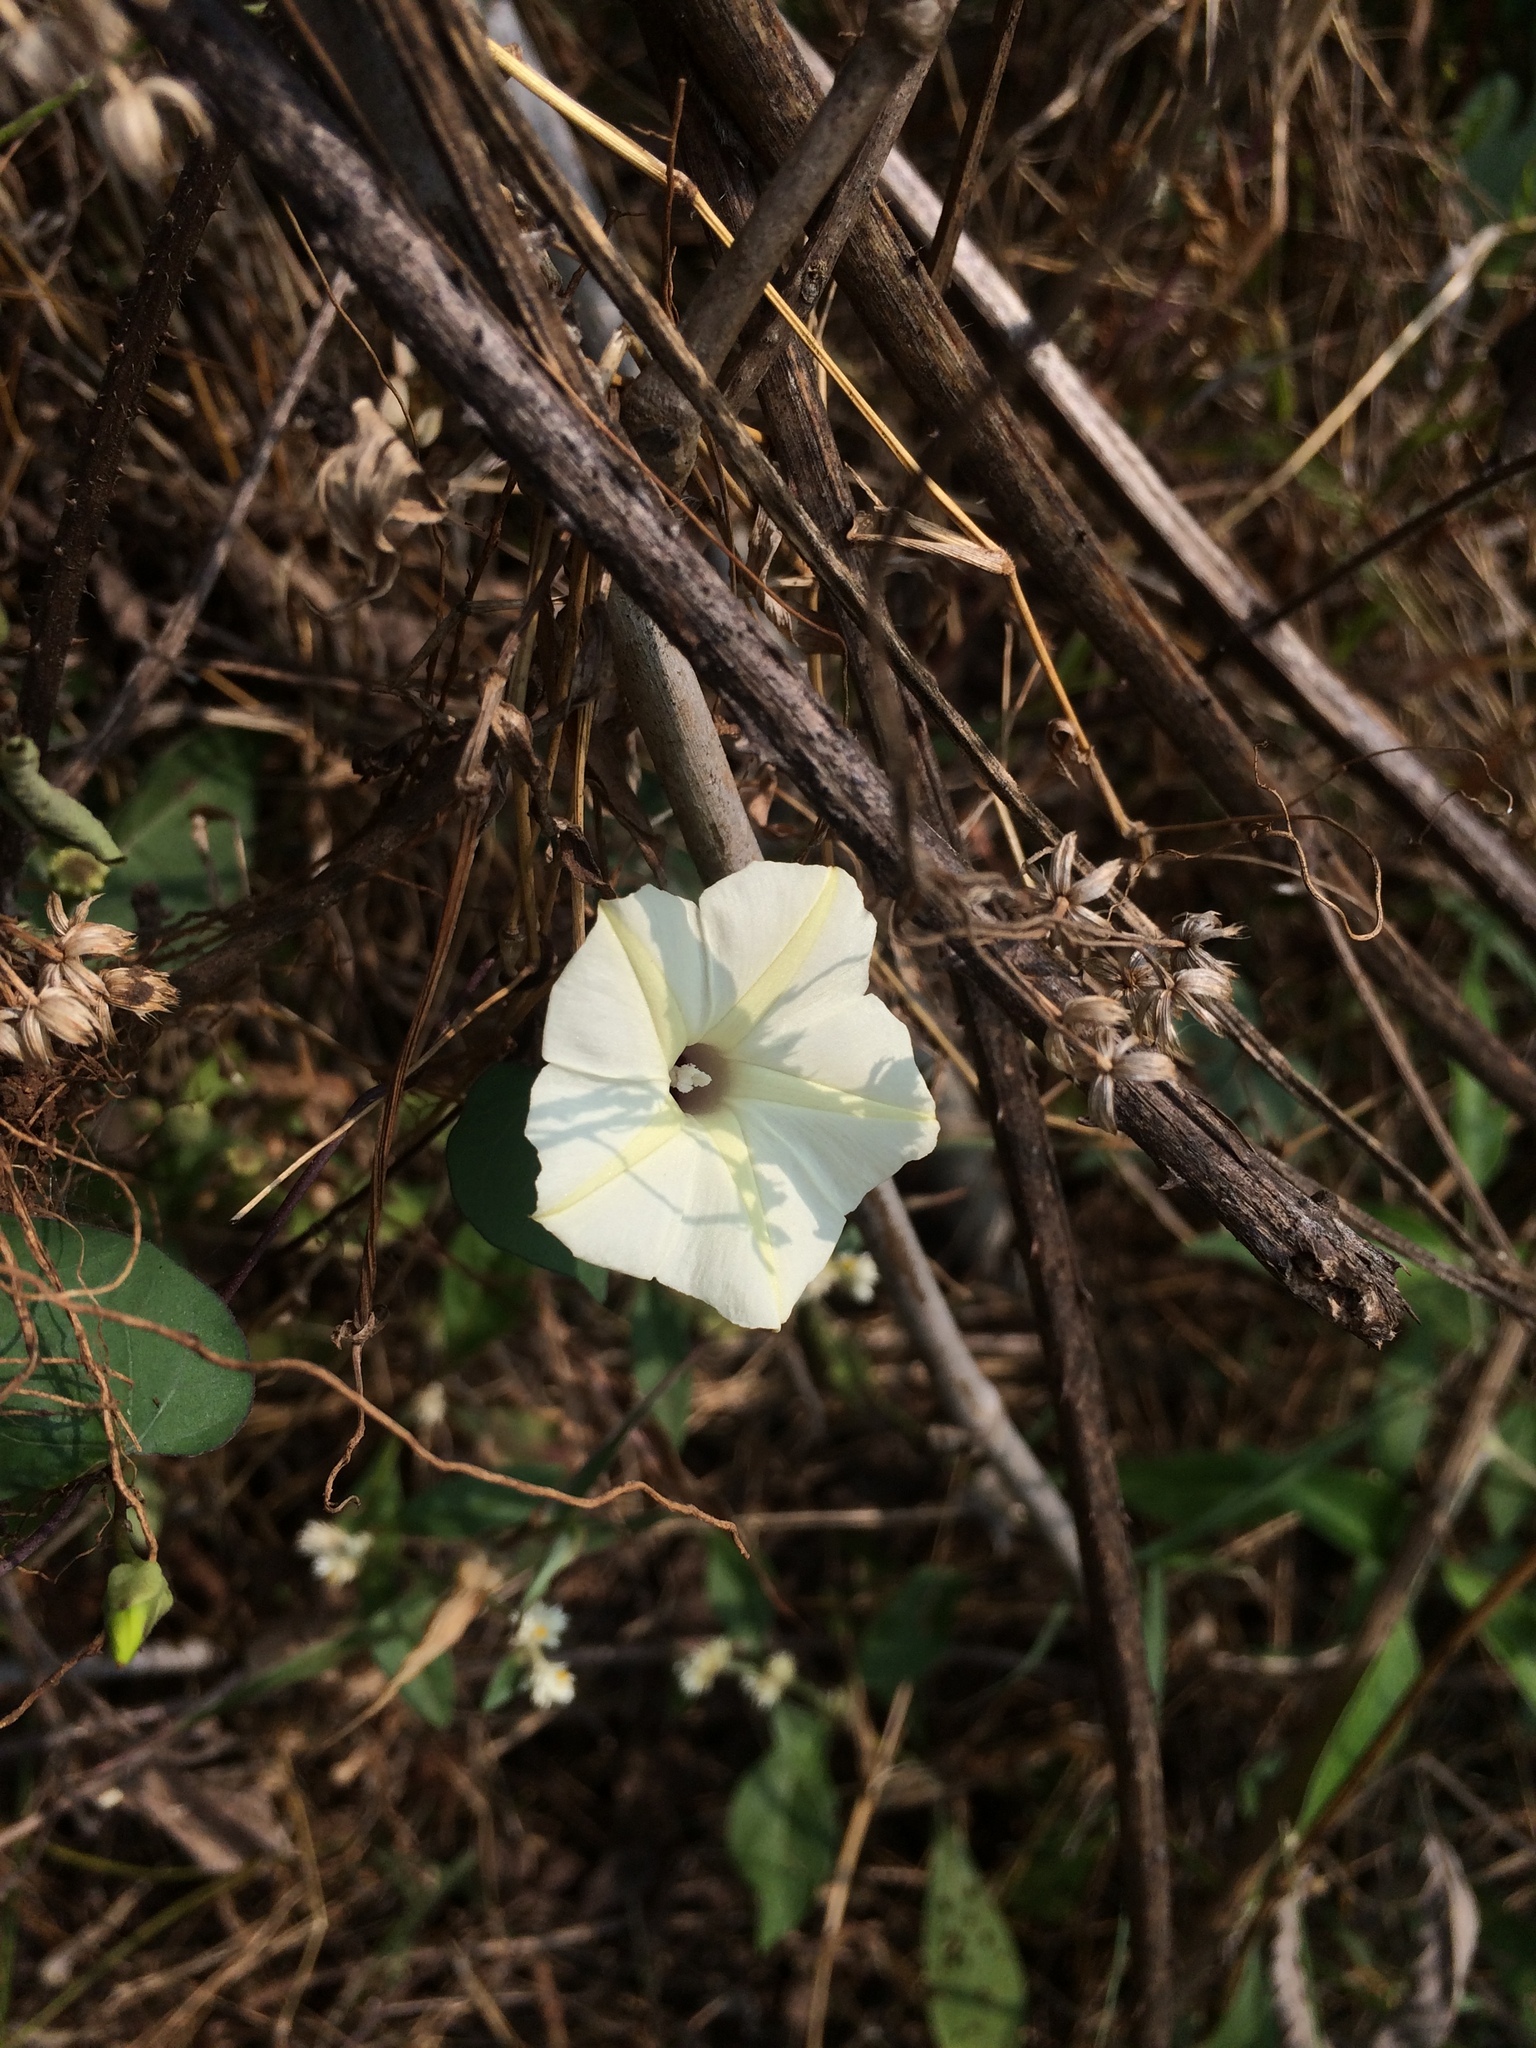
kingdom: Plantae
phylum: Tracheophyta
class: Magnoliopsida
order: Solanales
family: Convolvulaceae
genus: Ipomoea
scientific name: Ipomoea obscura
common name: Obscure morning-glory
